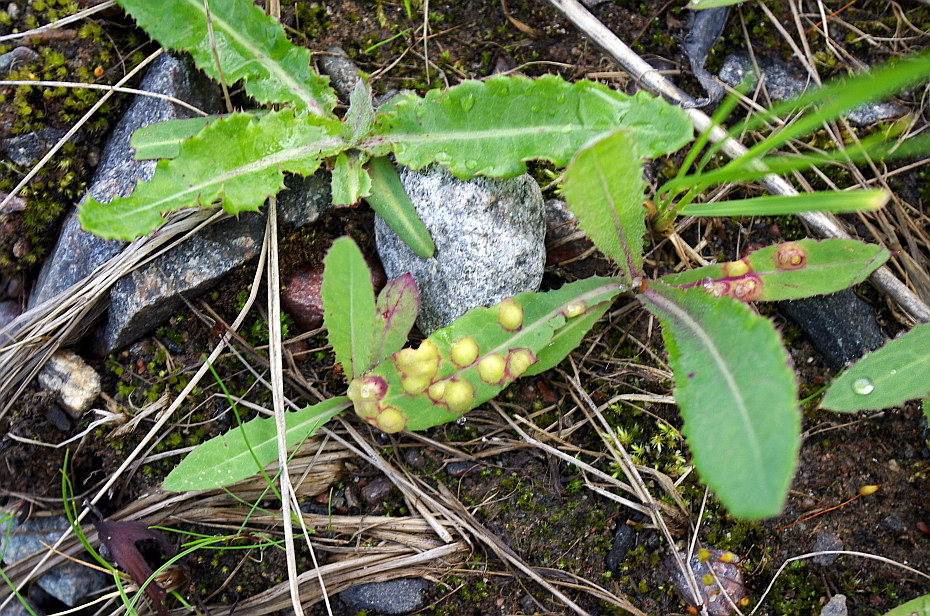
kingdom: Plantae
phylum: Tracheophyta
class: Magnoliopsida
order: Asterales
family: Asteraceae
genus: Sonchus
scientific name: Sonchus arvensis
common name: Perennial sow-thistle
